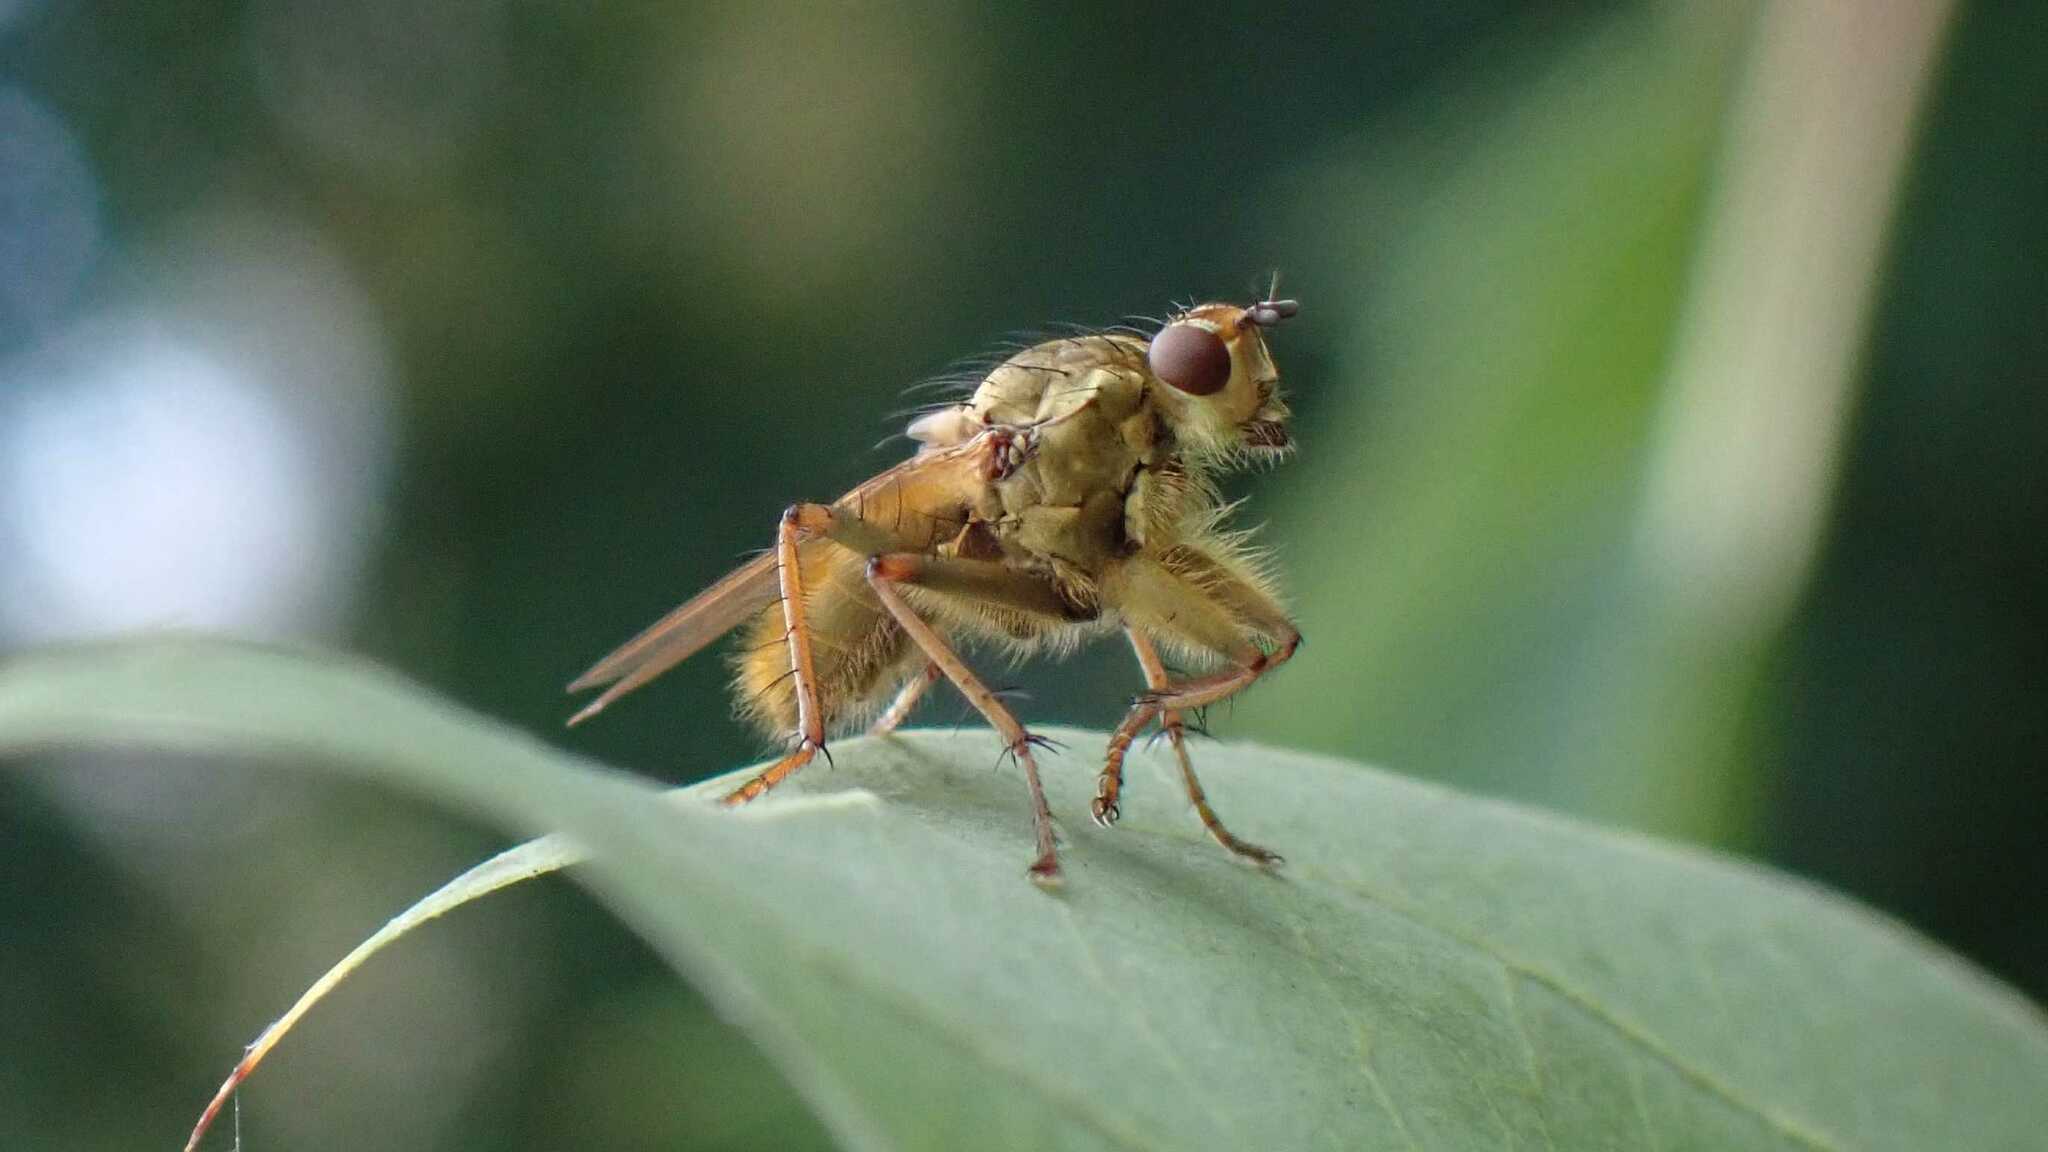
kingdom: Animalia
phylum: Arthropoda
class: Insecta
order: Diptera
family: Scathophagidae
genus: Scathophaga
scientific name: Scathophaga stercoraria
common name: Yellow dung fly
